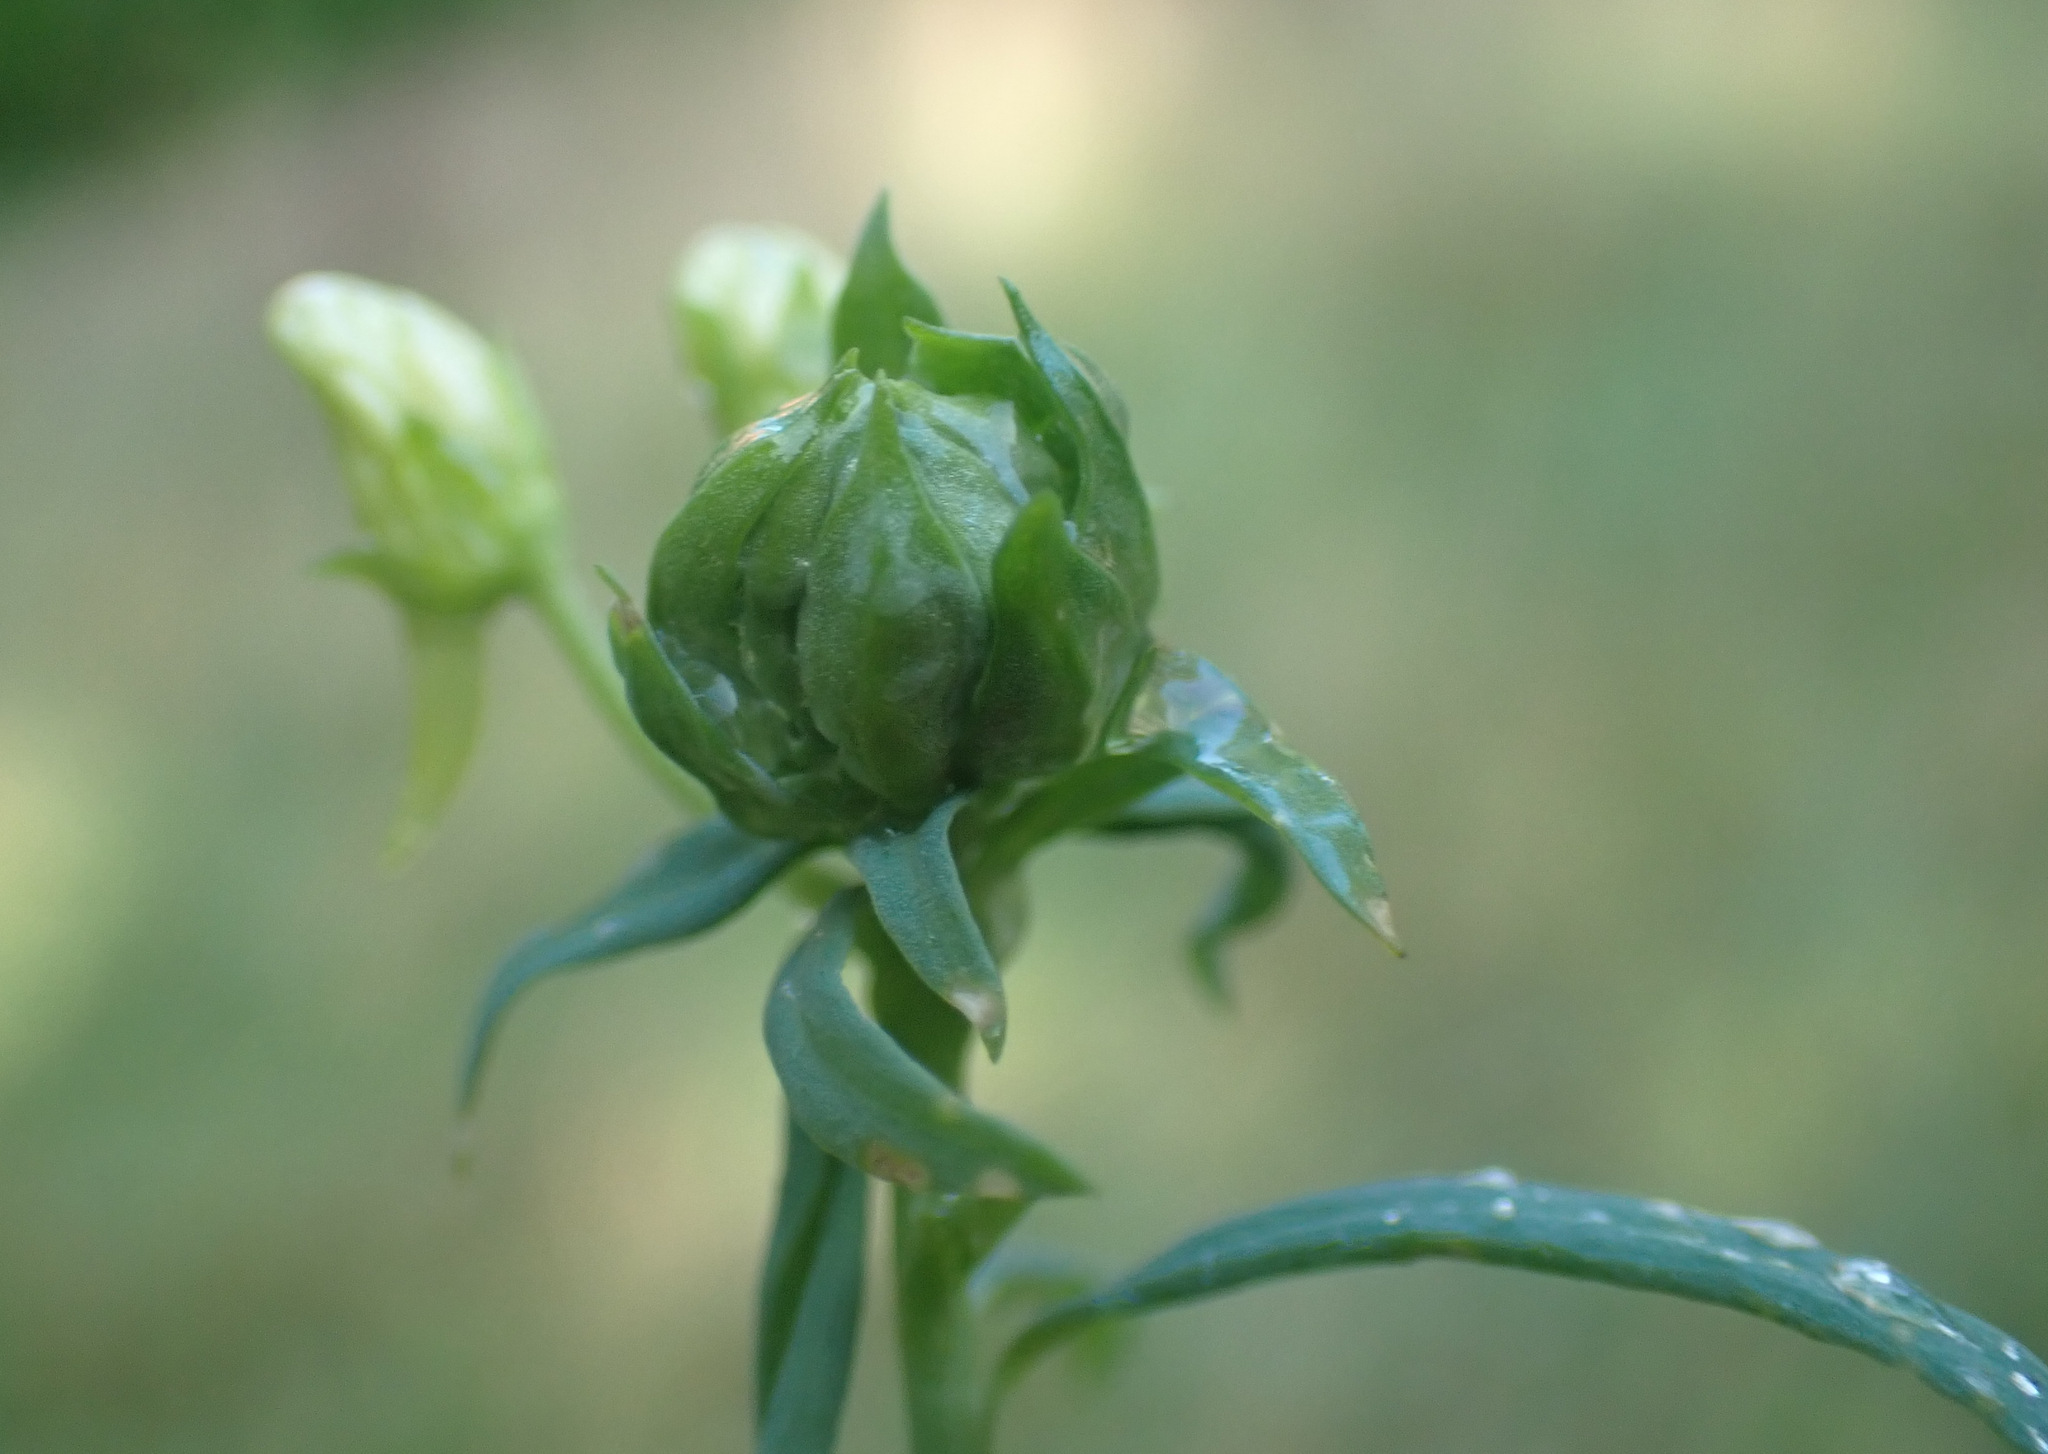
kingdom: Animalia
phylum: Arthropoda
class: Insecta
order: Diptera
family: Cecidomyiidae
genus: Diodaulus
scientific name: Diodaulus linariae
